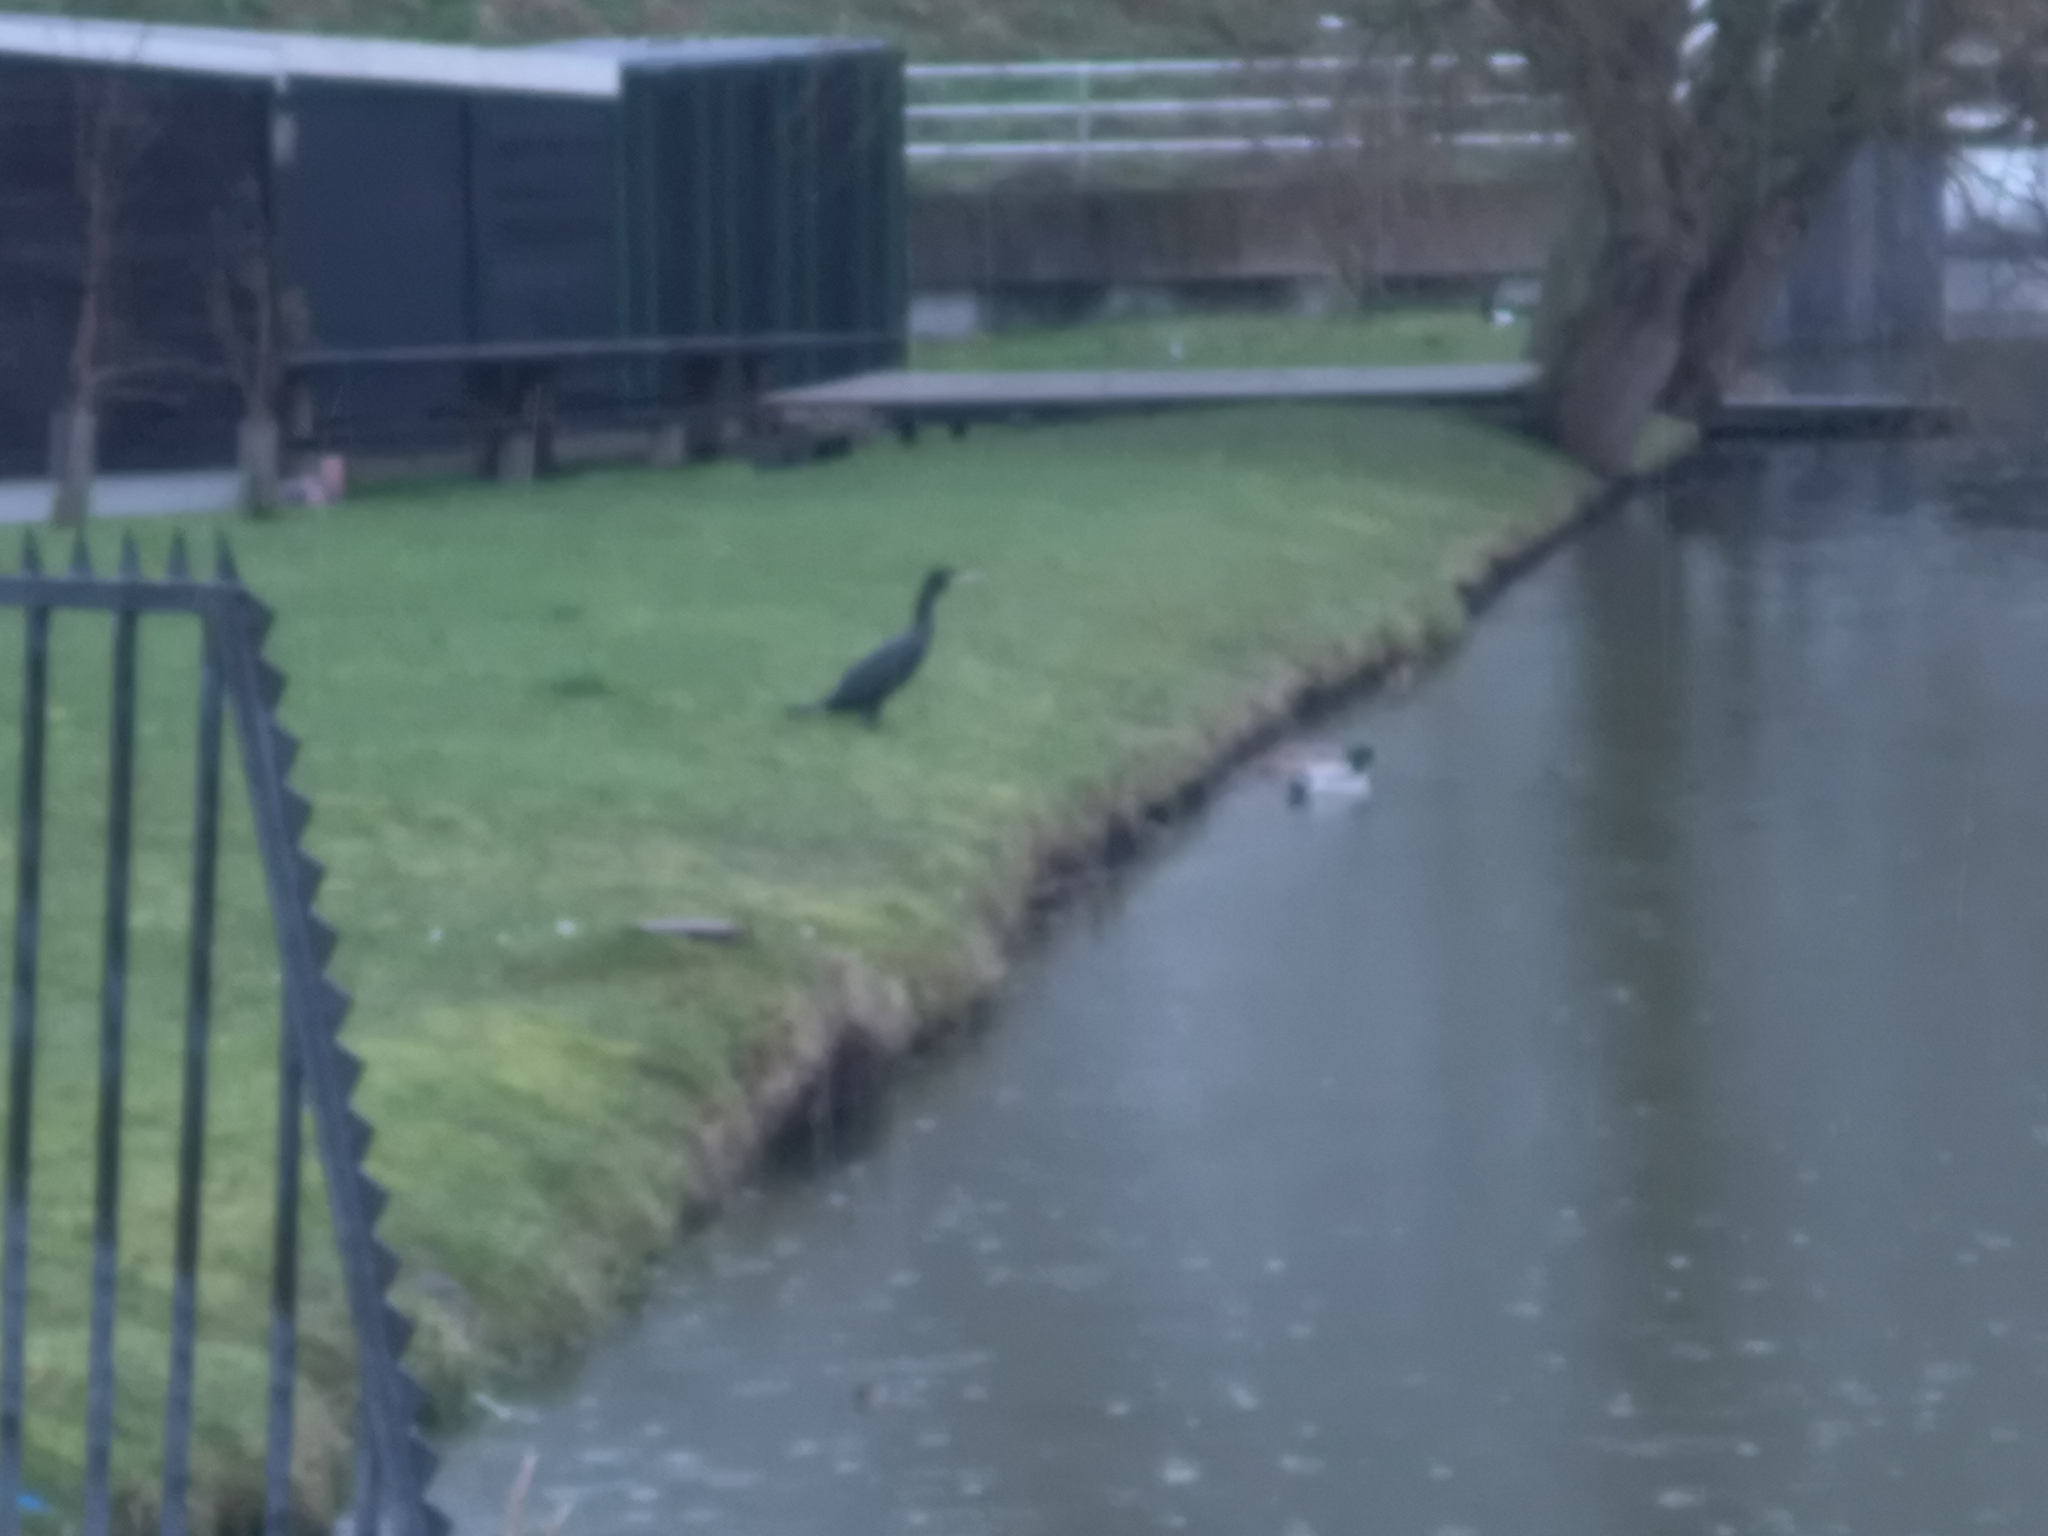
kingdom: Animalia
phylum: Chordata
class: Aves
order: Suliformes
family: Phalacrocoracidae
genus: Phalacrocorax
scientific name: Phalacrocorax carbo
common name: Great cormorant
